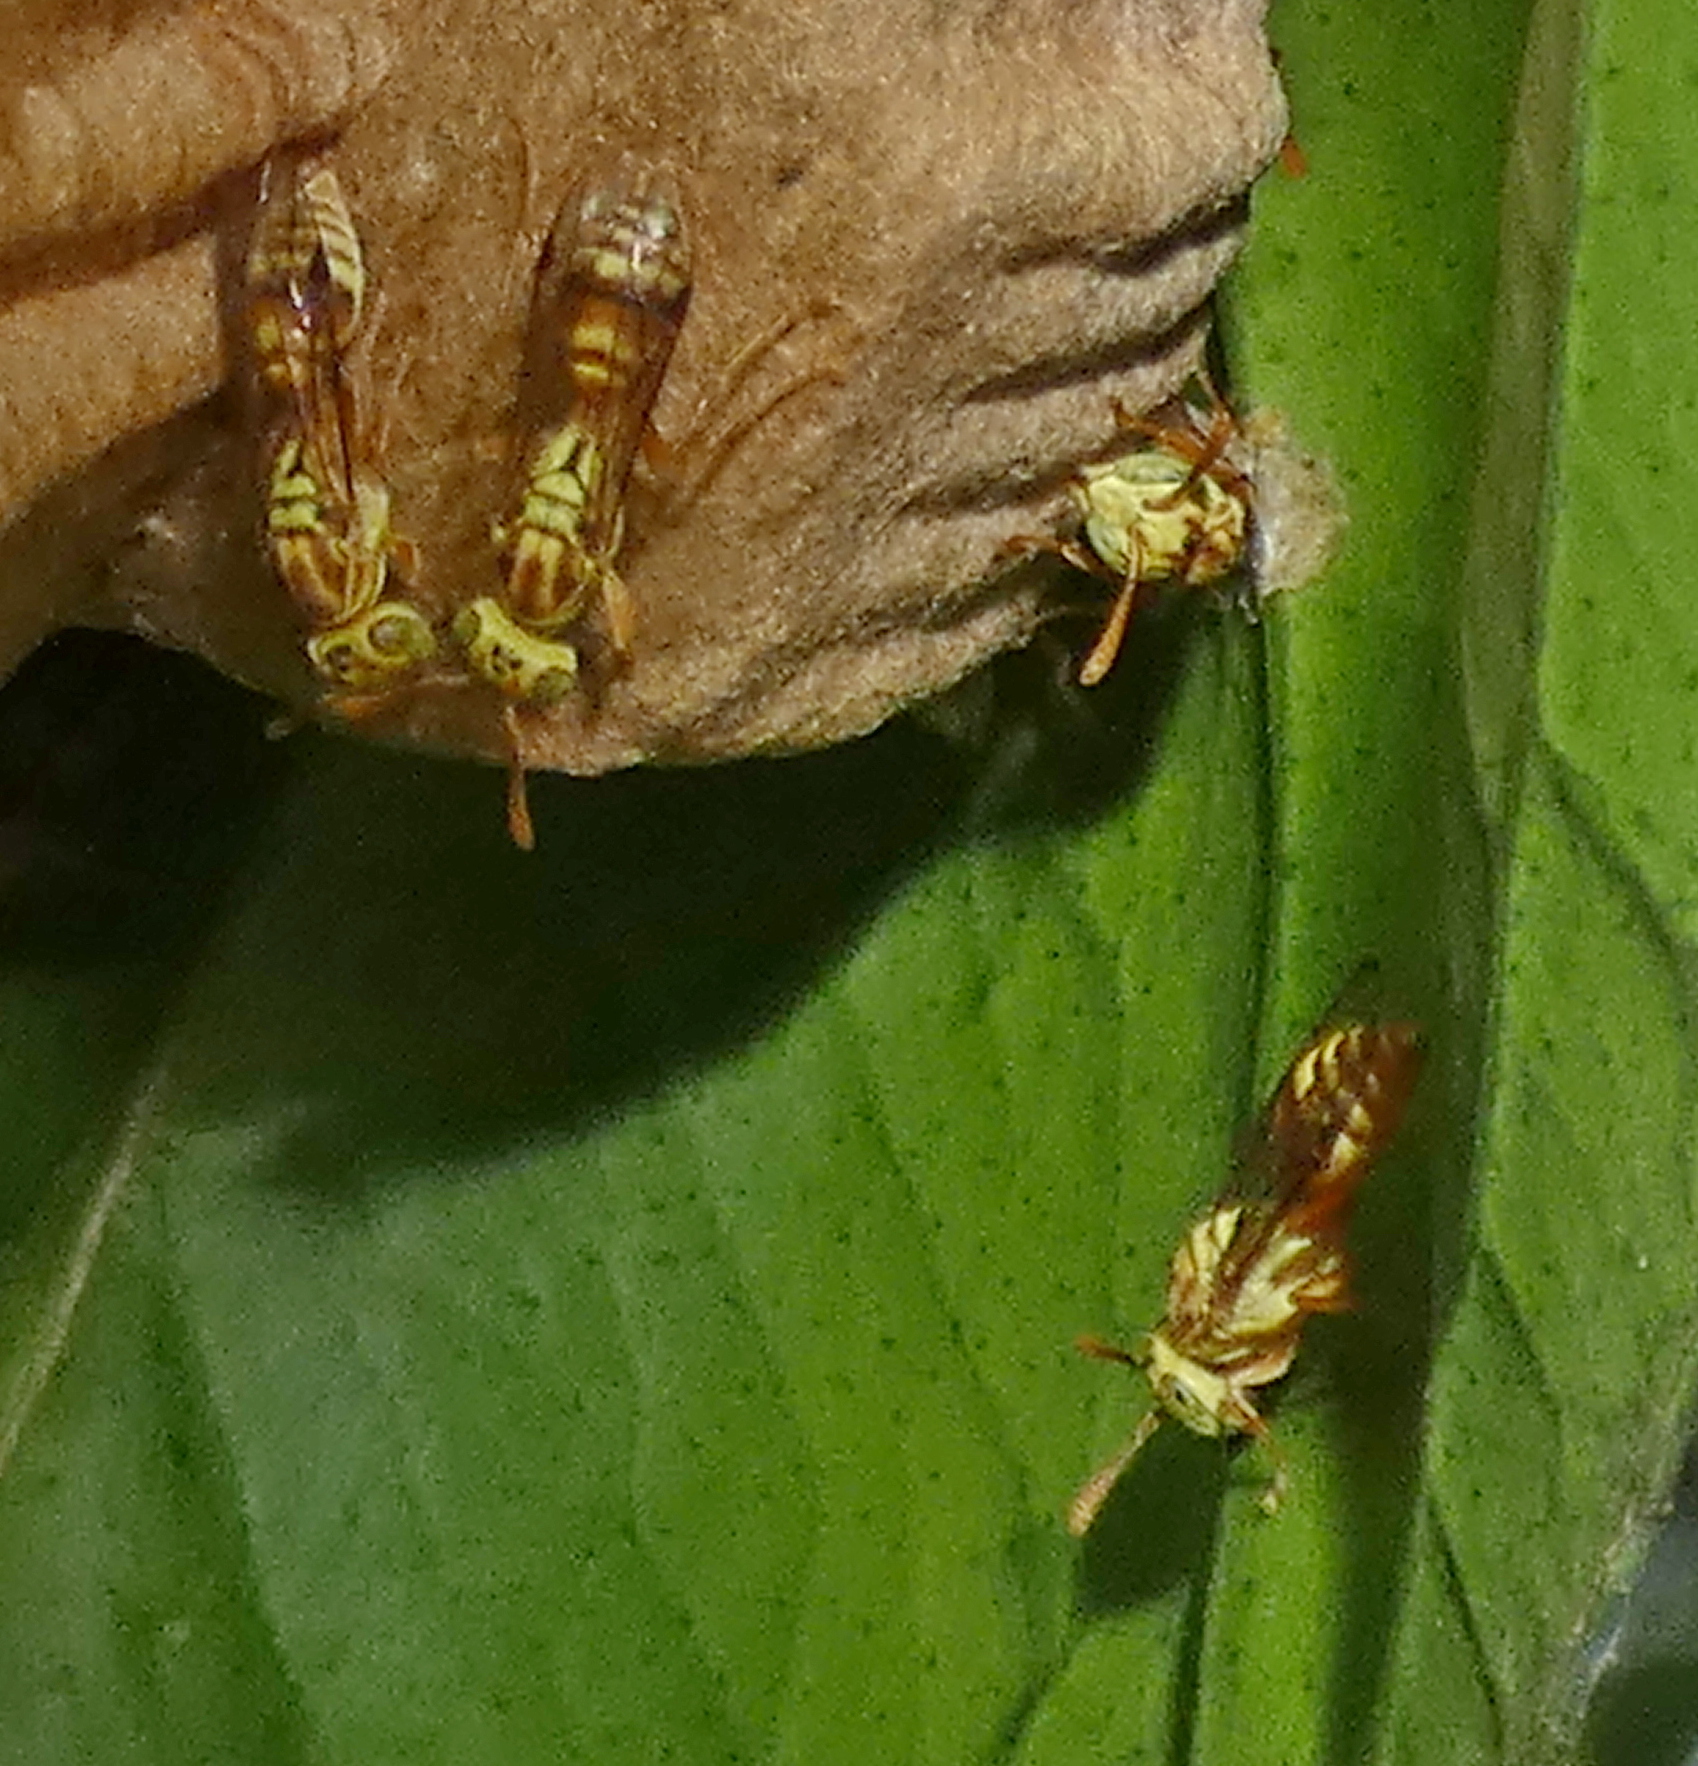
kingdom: Animalia
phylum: Arthropoda
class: Insecta
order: Hymenoptera
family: Vespidae
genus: Protopolybia
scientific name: Protopolybia potiguara
